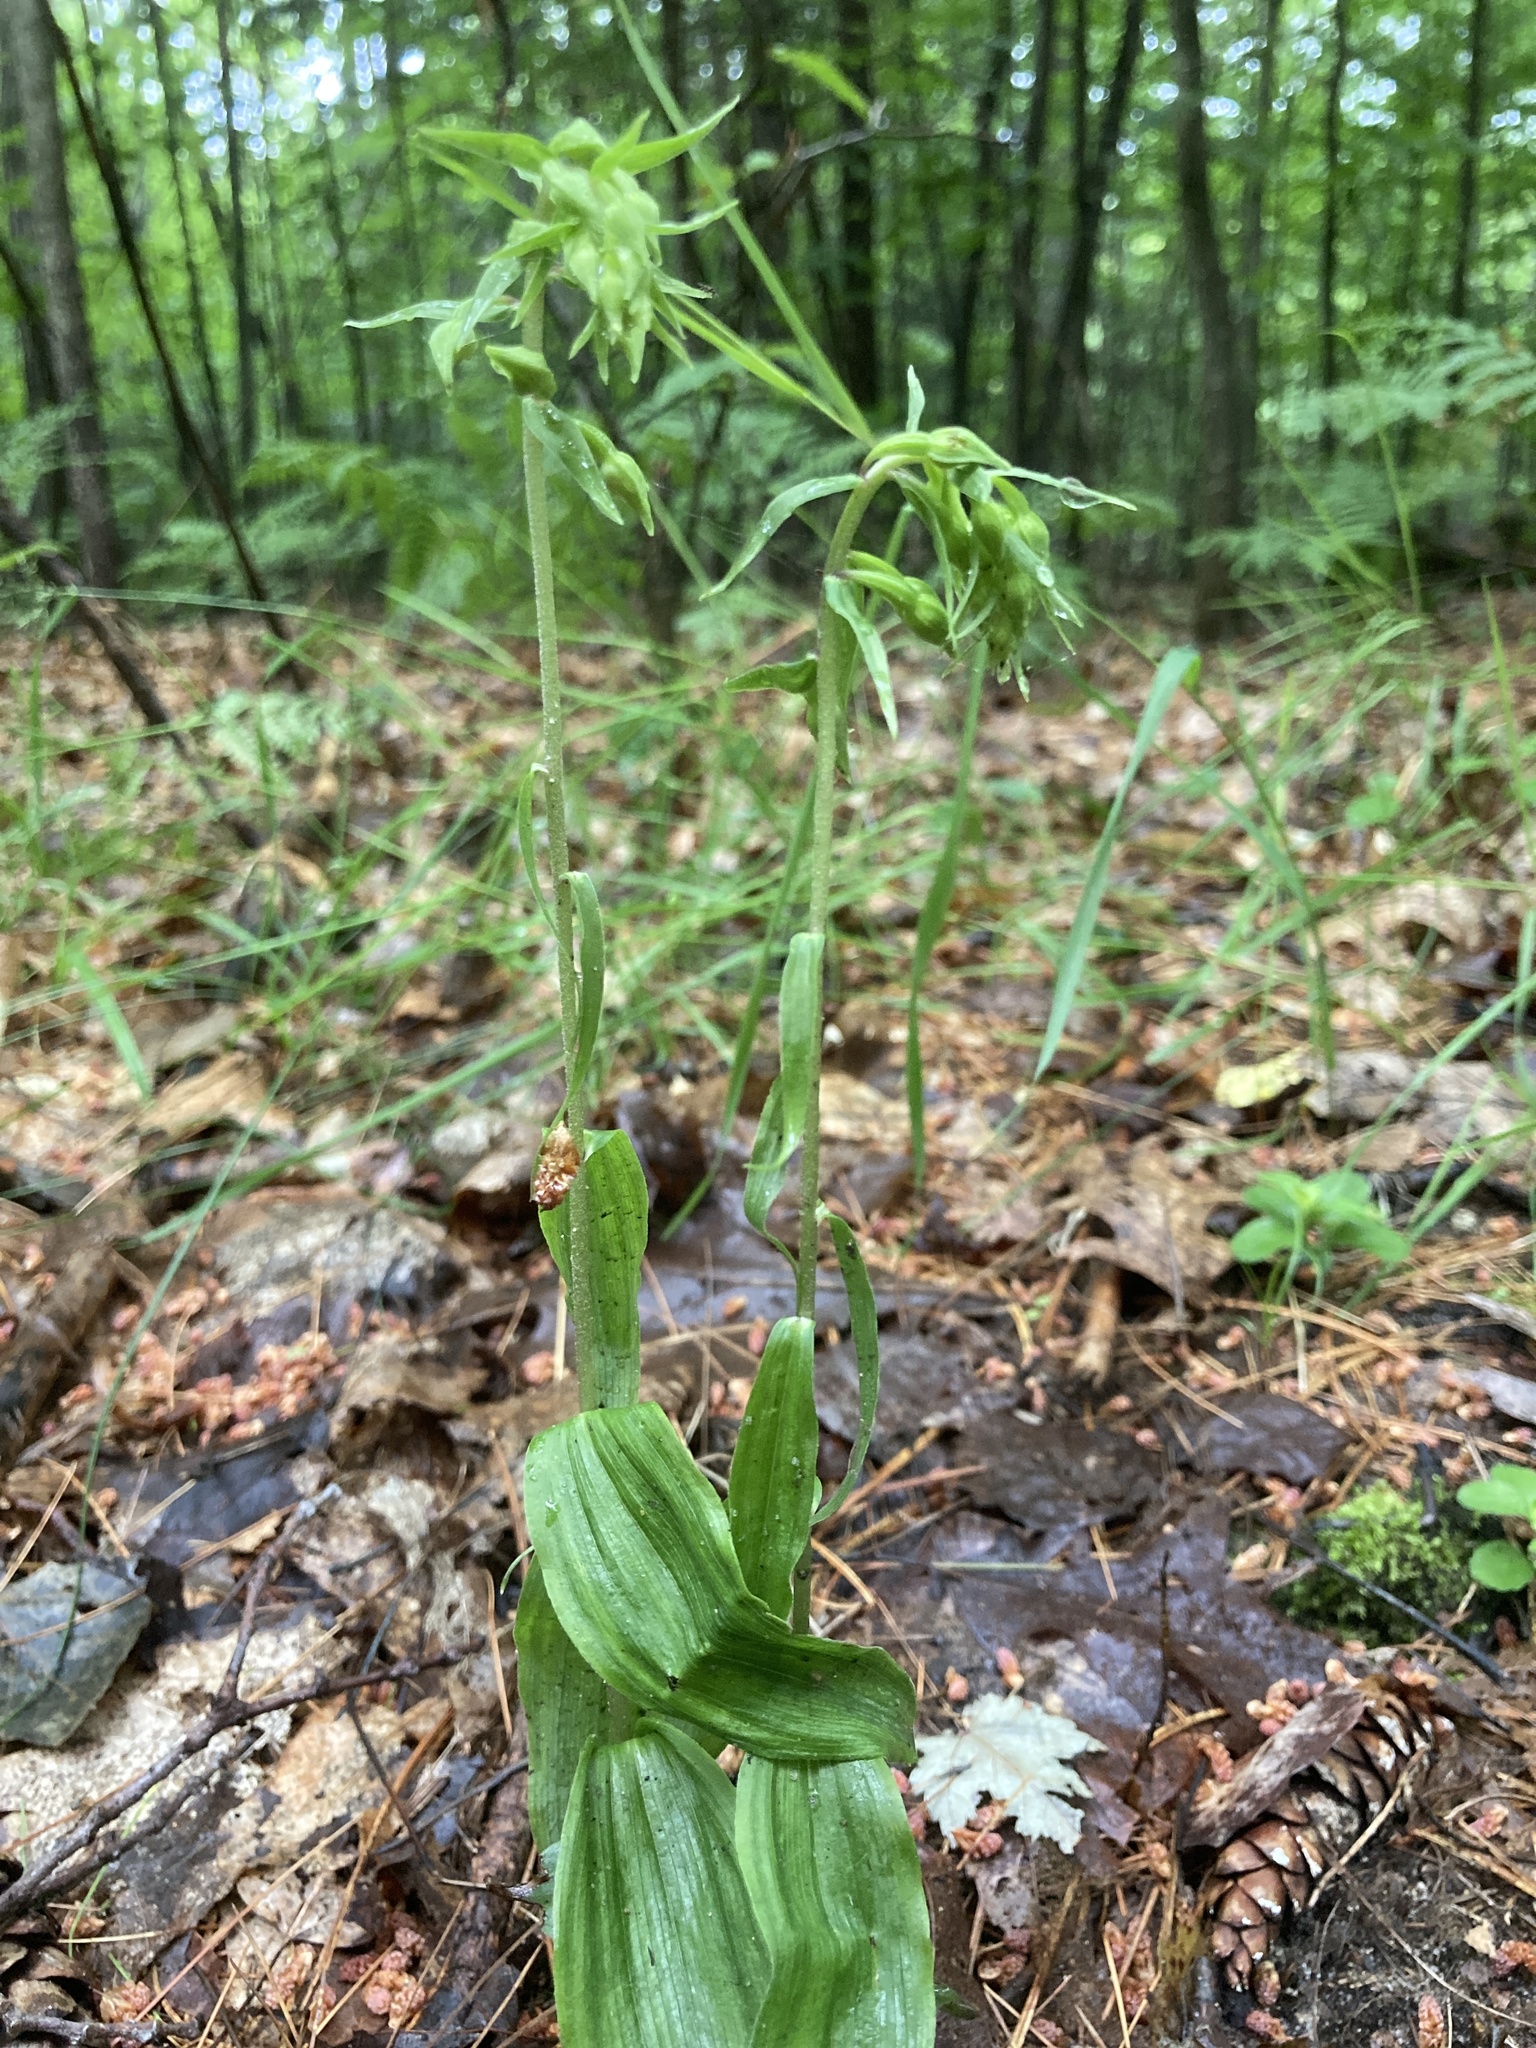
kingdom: Plantae
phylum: Tracheophyta
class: Liliopsida
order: Asparagales
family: Orchidaceae
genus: Epipactis
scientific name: Epipactis helleborine
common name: Broad-leaved helleborine
